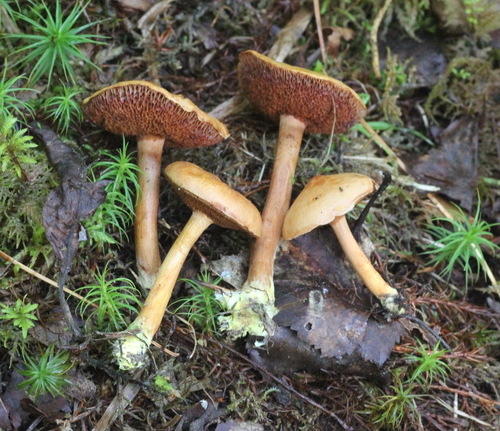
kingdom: Fungi
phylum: Basidiomycota
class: Agaricomycetes
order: Boletales
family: Boletaceae
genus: Chalciporus
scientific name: Chalciporus piperatus
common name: Peppery bolete
